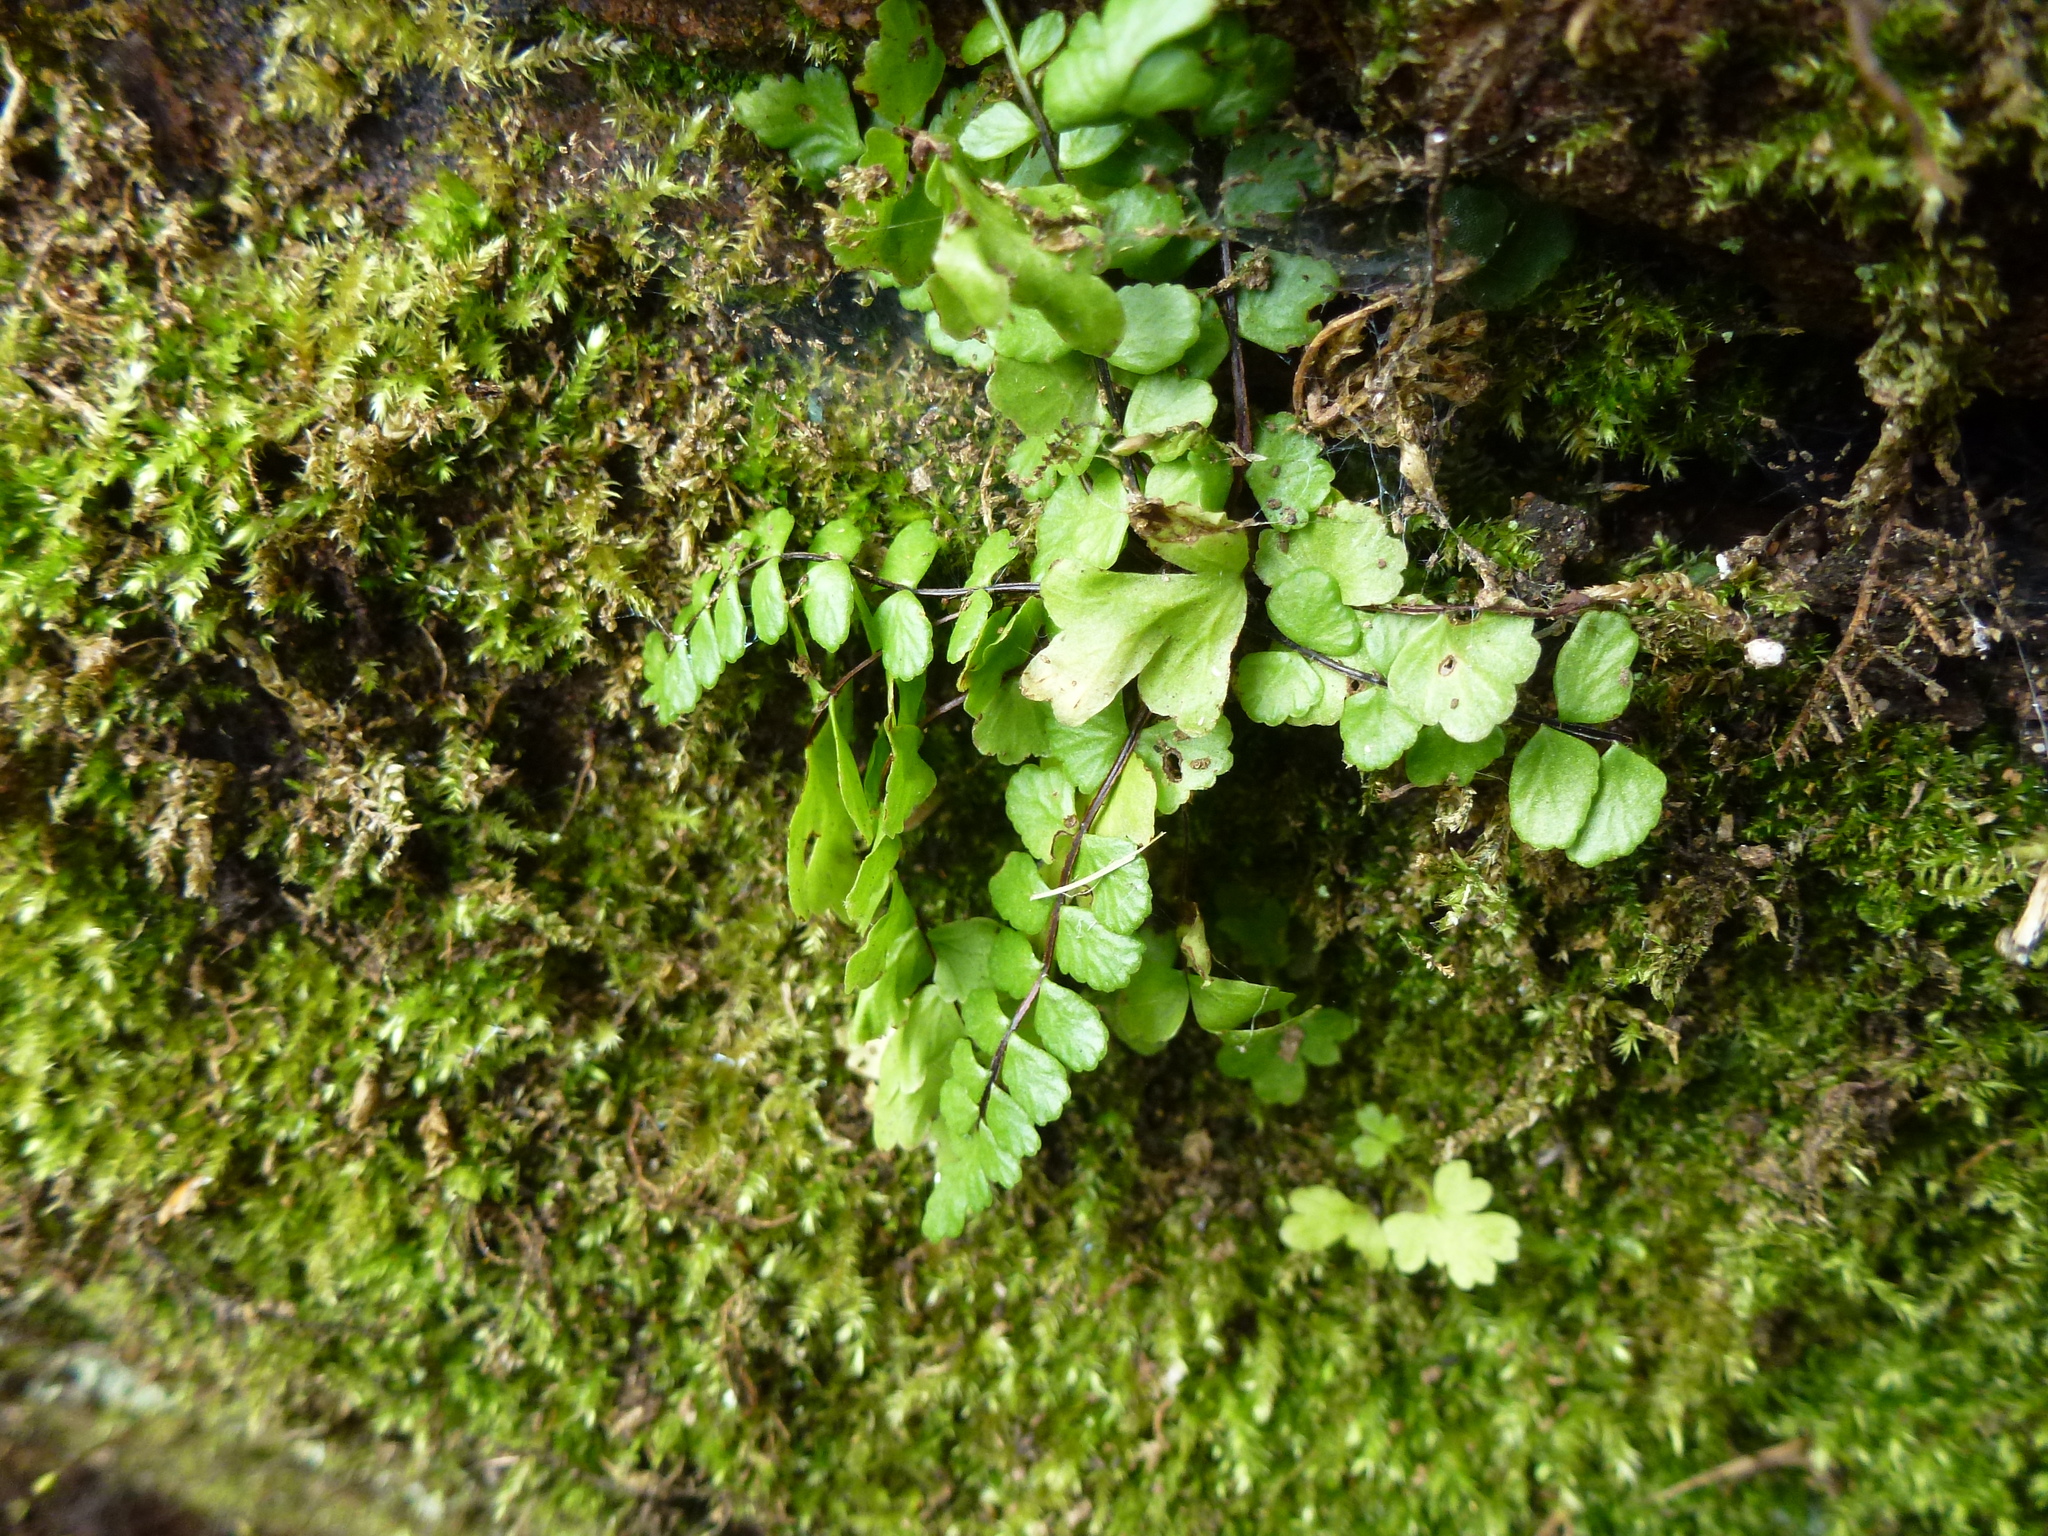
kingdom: Plantae
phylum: Tracheophyta
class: Polypodiopsida
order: Polypodiales
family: Aspleniaceae
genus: Asplenium
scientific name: Asplenium trichomanes
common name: Maidenhair spleenwort
